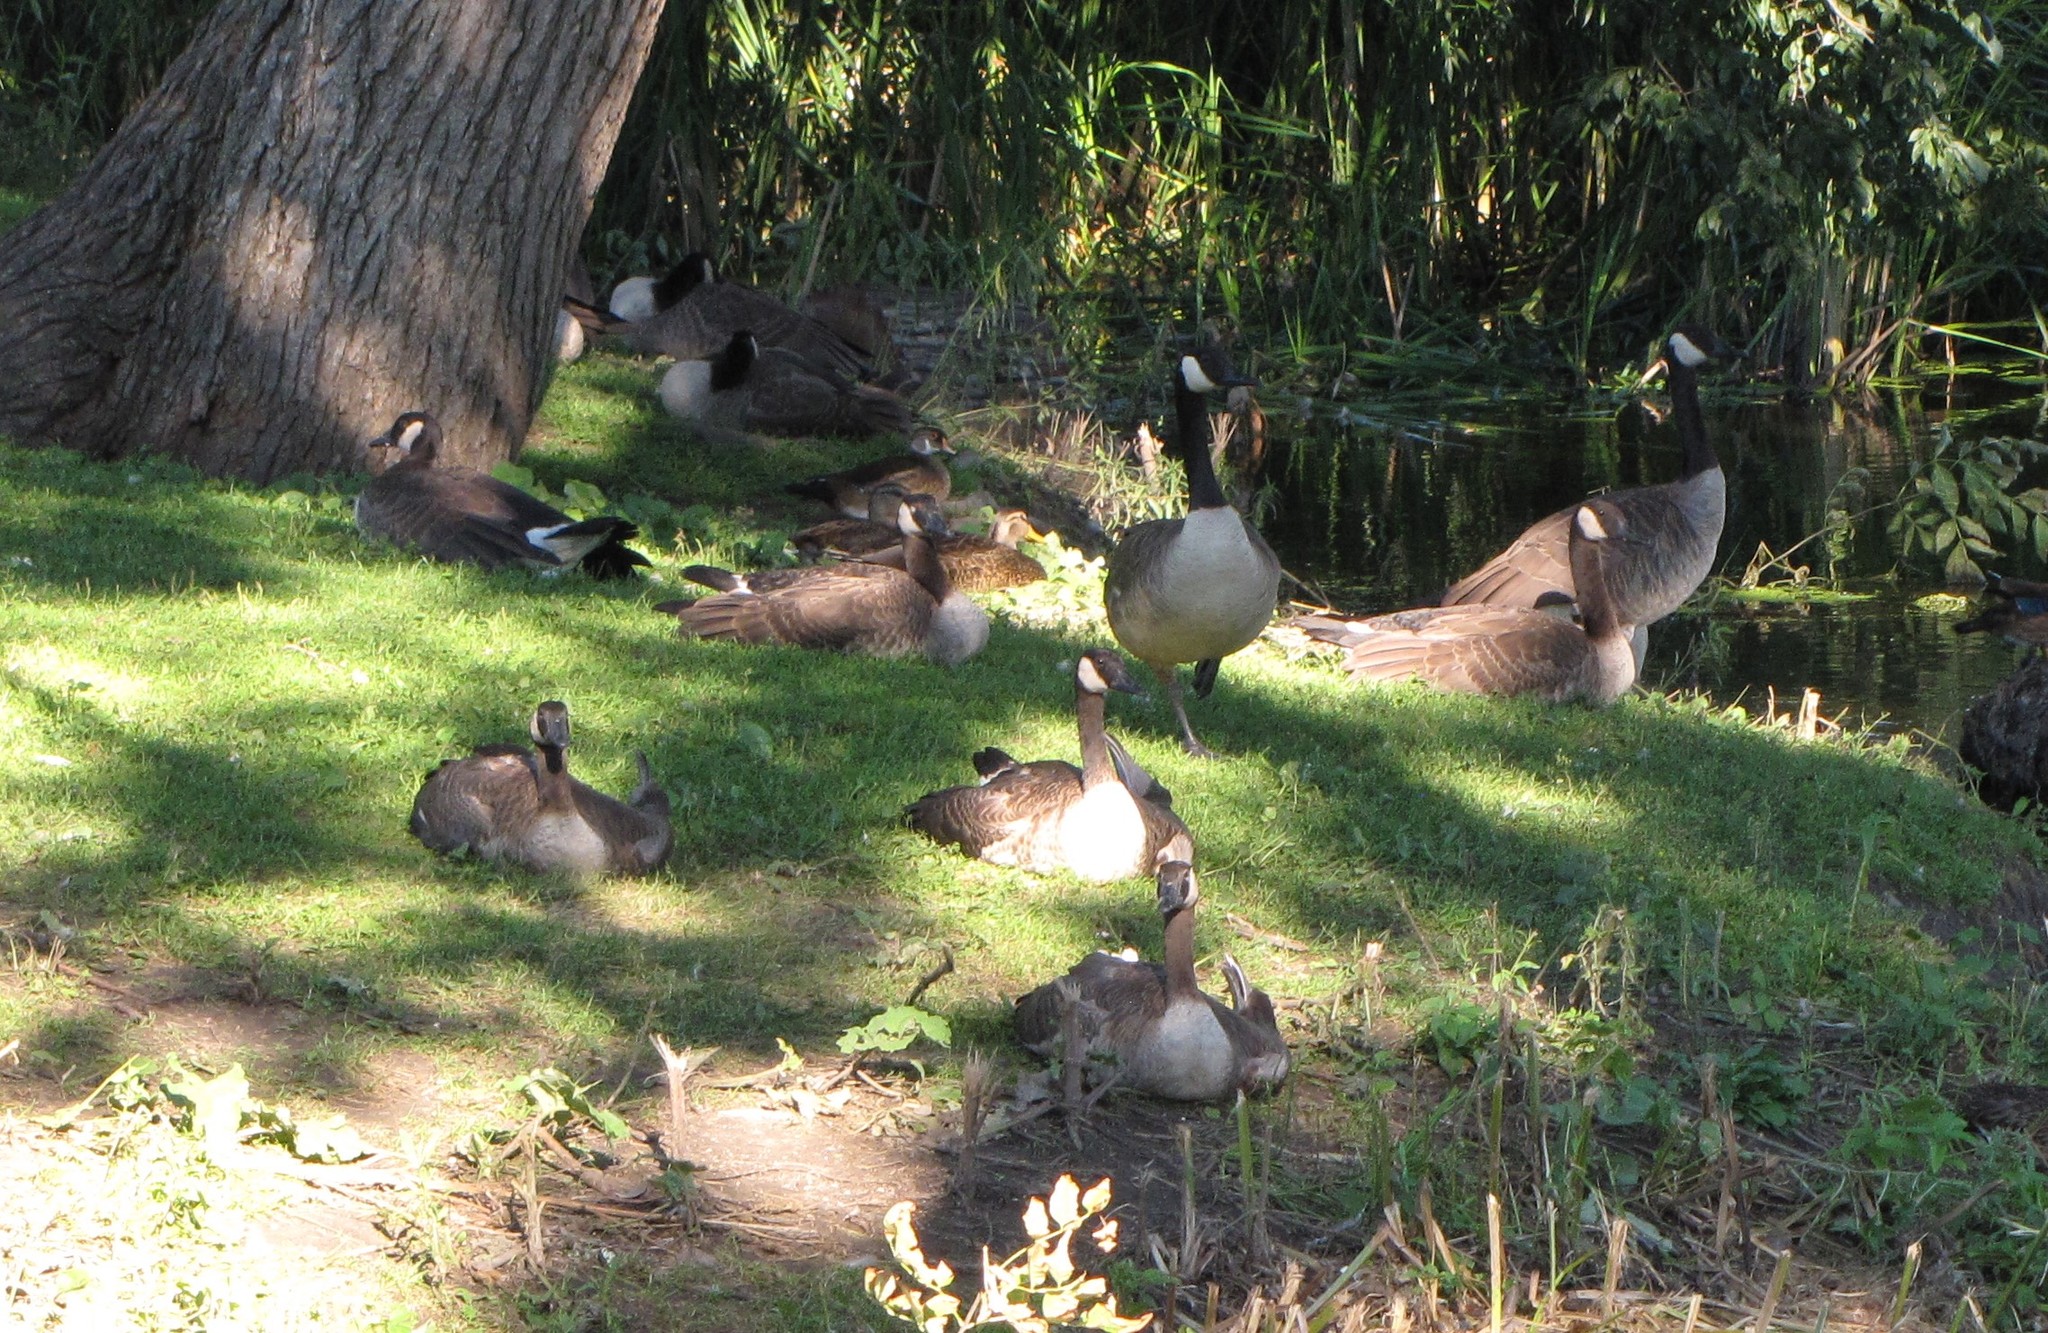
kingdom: Animalia
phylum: Chordata
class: Aves
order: Anseriformes
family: Anatidae
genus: Branta
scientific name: Branta canadensis
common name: Canada goose
